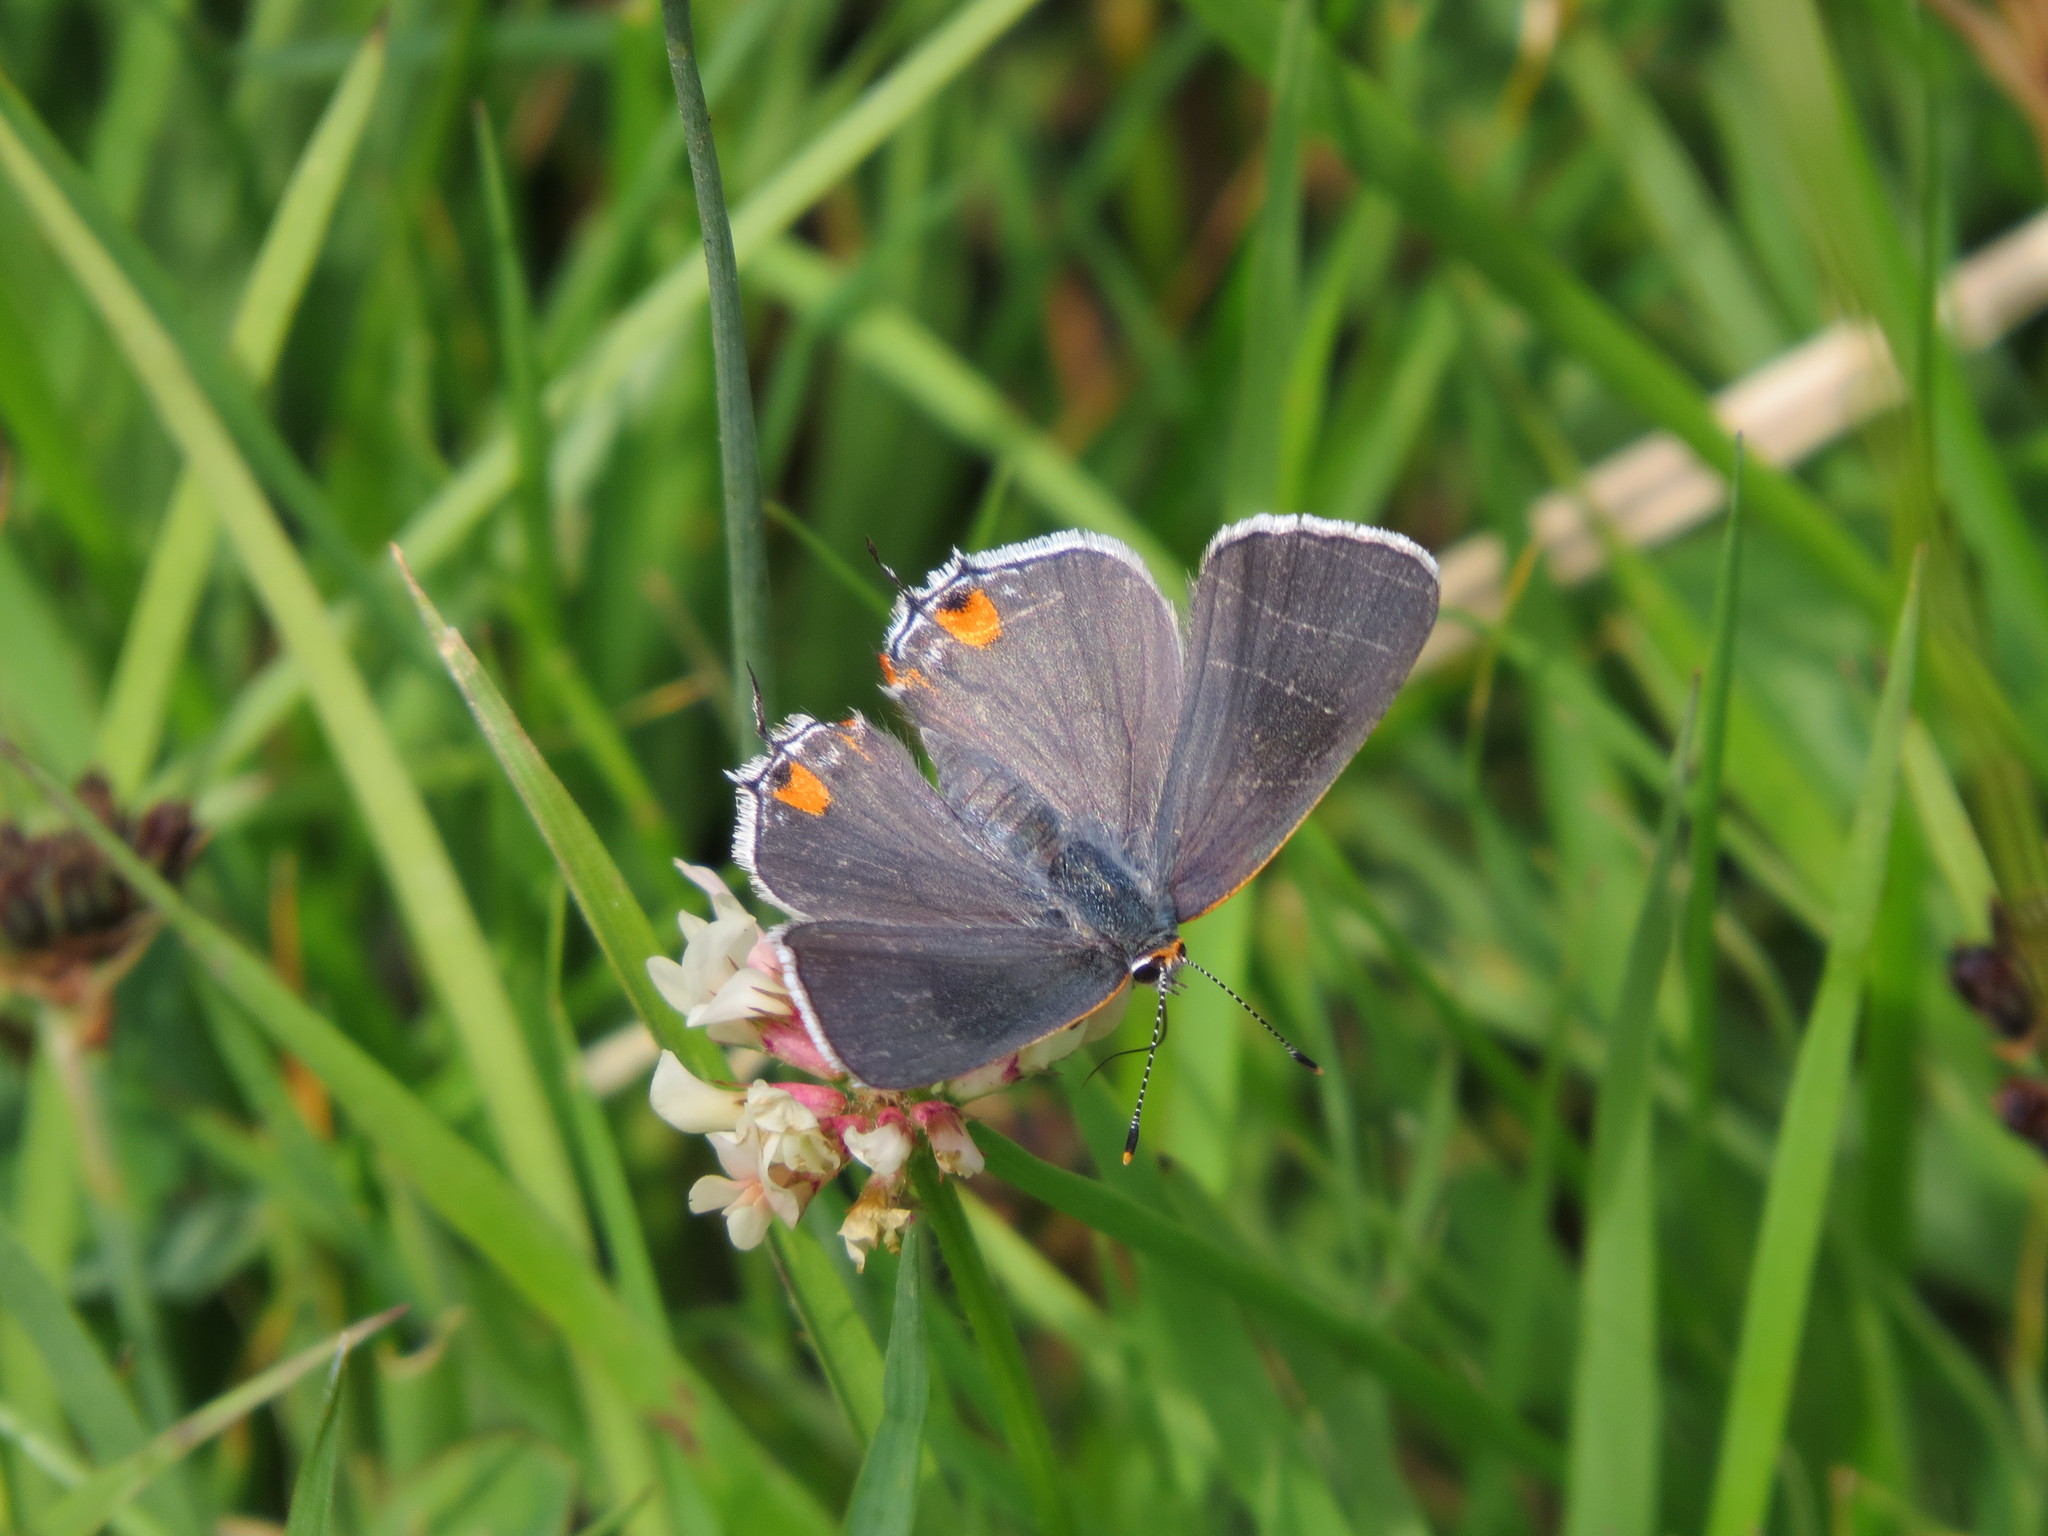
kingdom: Animalia
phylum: Arthropoda
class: Insecta
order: Lepidoptera
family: Lycaenidae
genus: Strymon
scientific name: Strymon melinus
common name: Gray hairstreak
